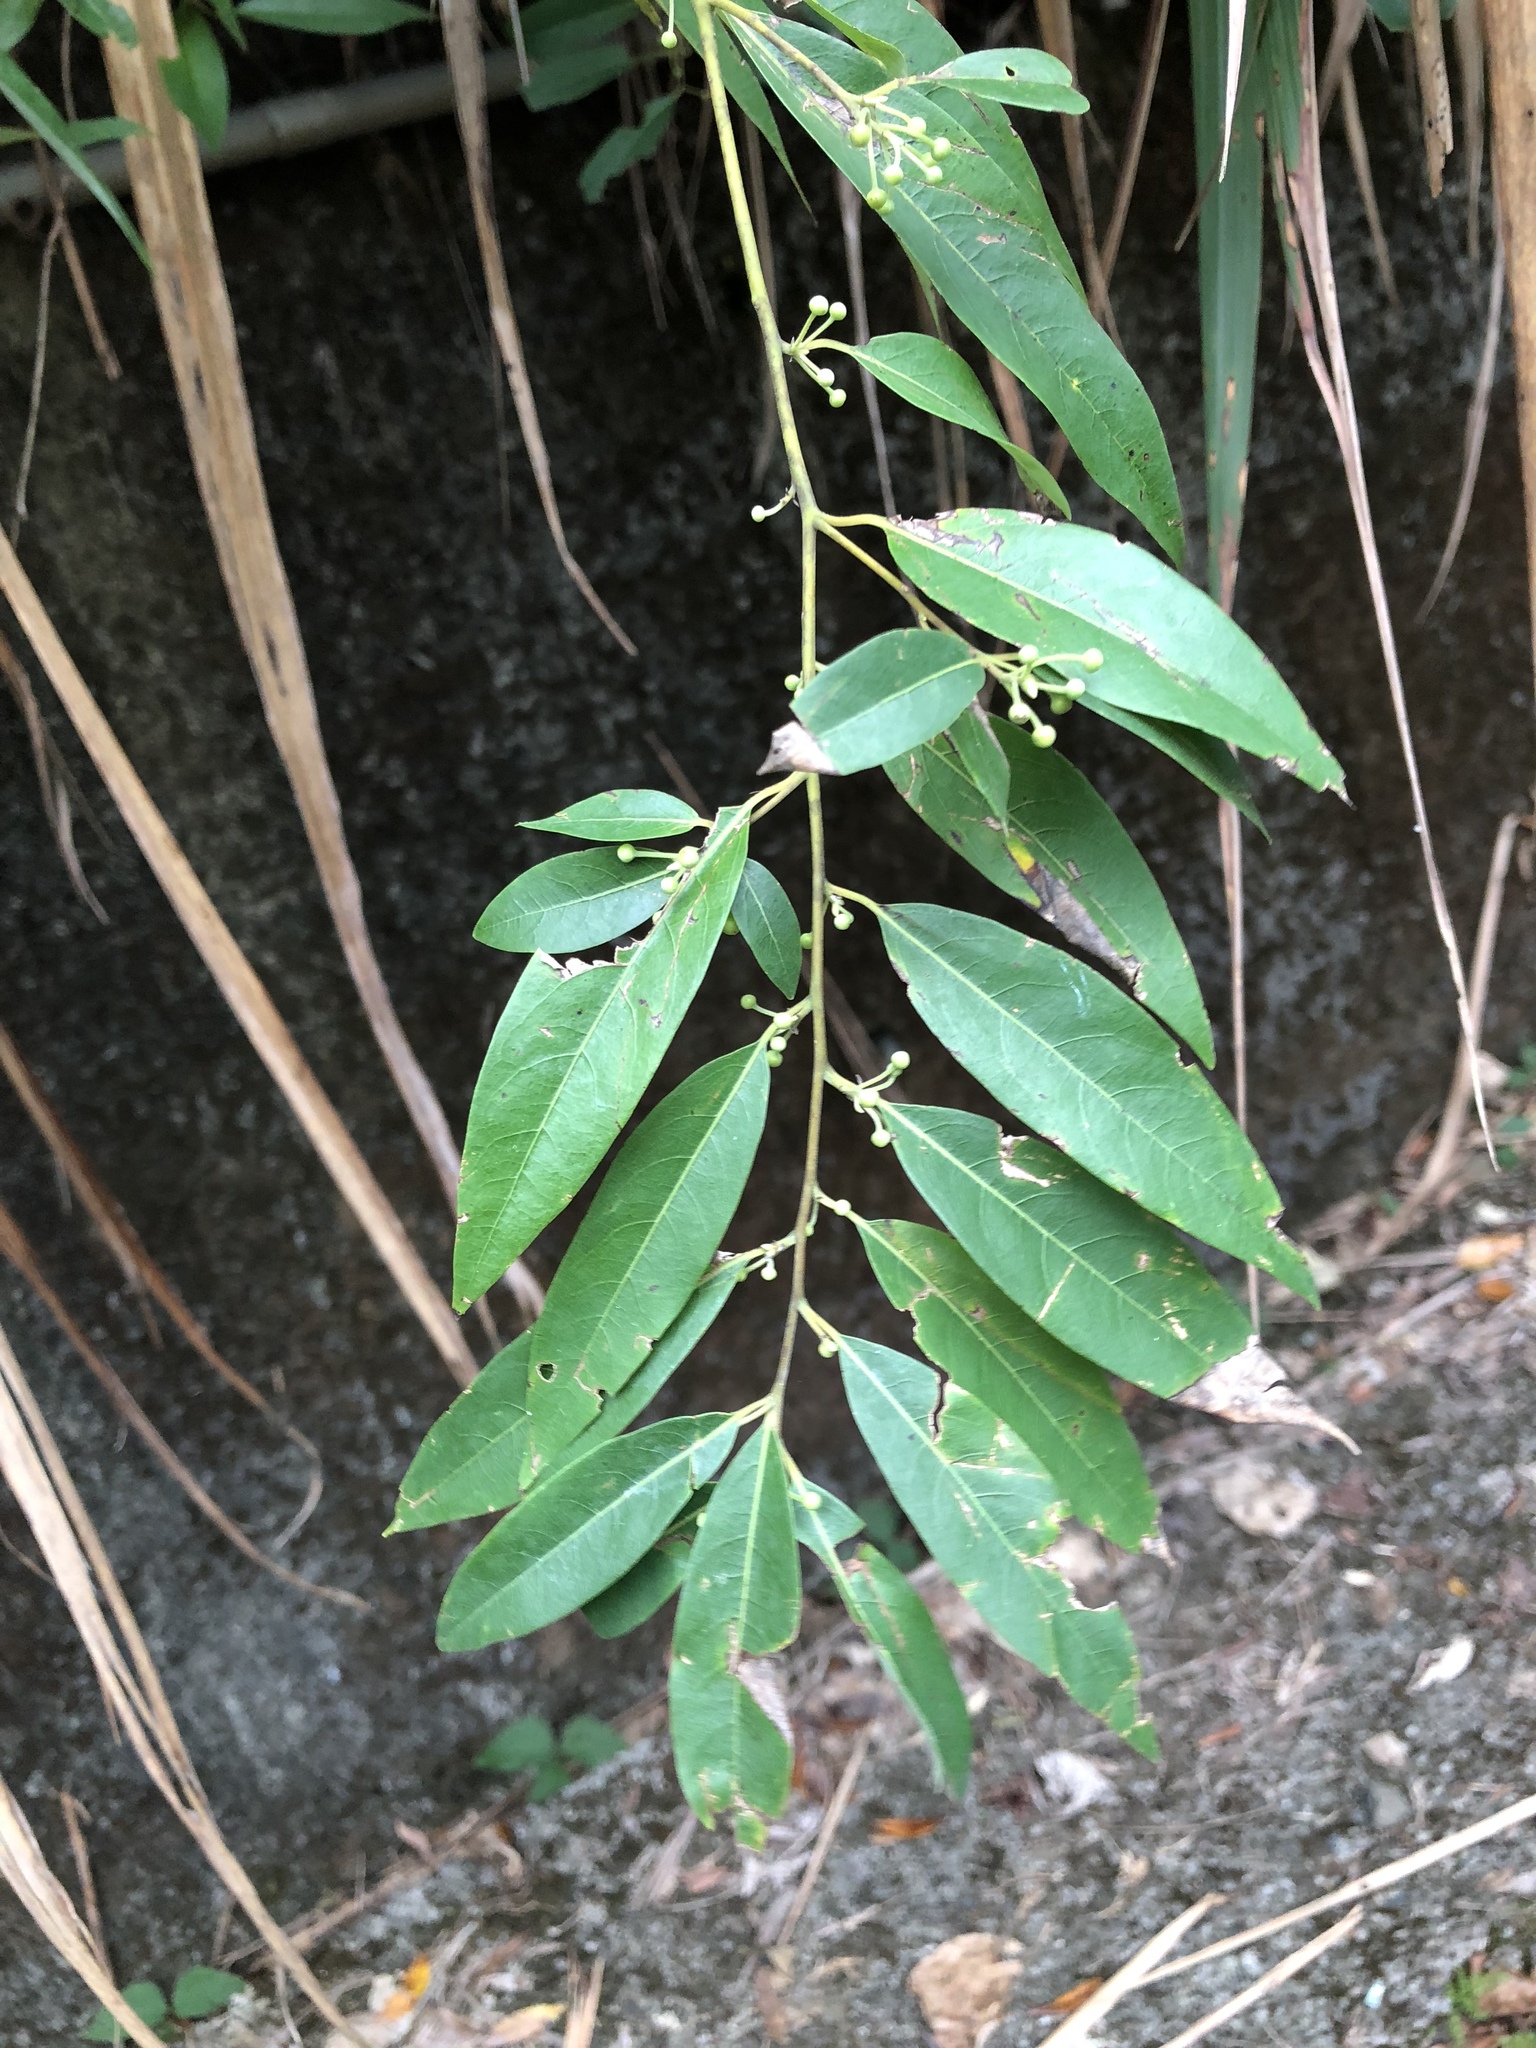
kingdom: Plantae
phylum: Tracheophyta
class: Magnoliopsida
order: Laurales
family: Lauraceae
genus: Litsea
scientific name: Litsea cubeba
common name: Mountain-pepper
